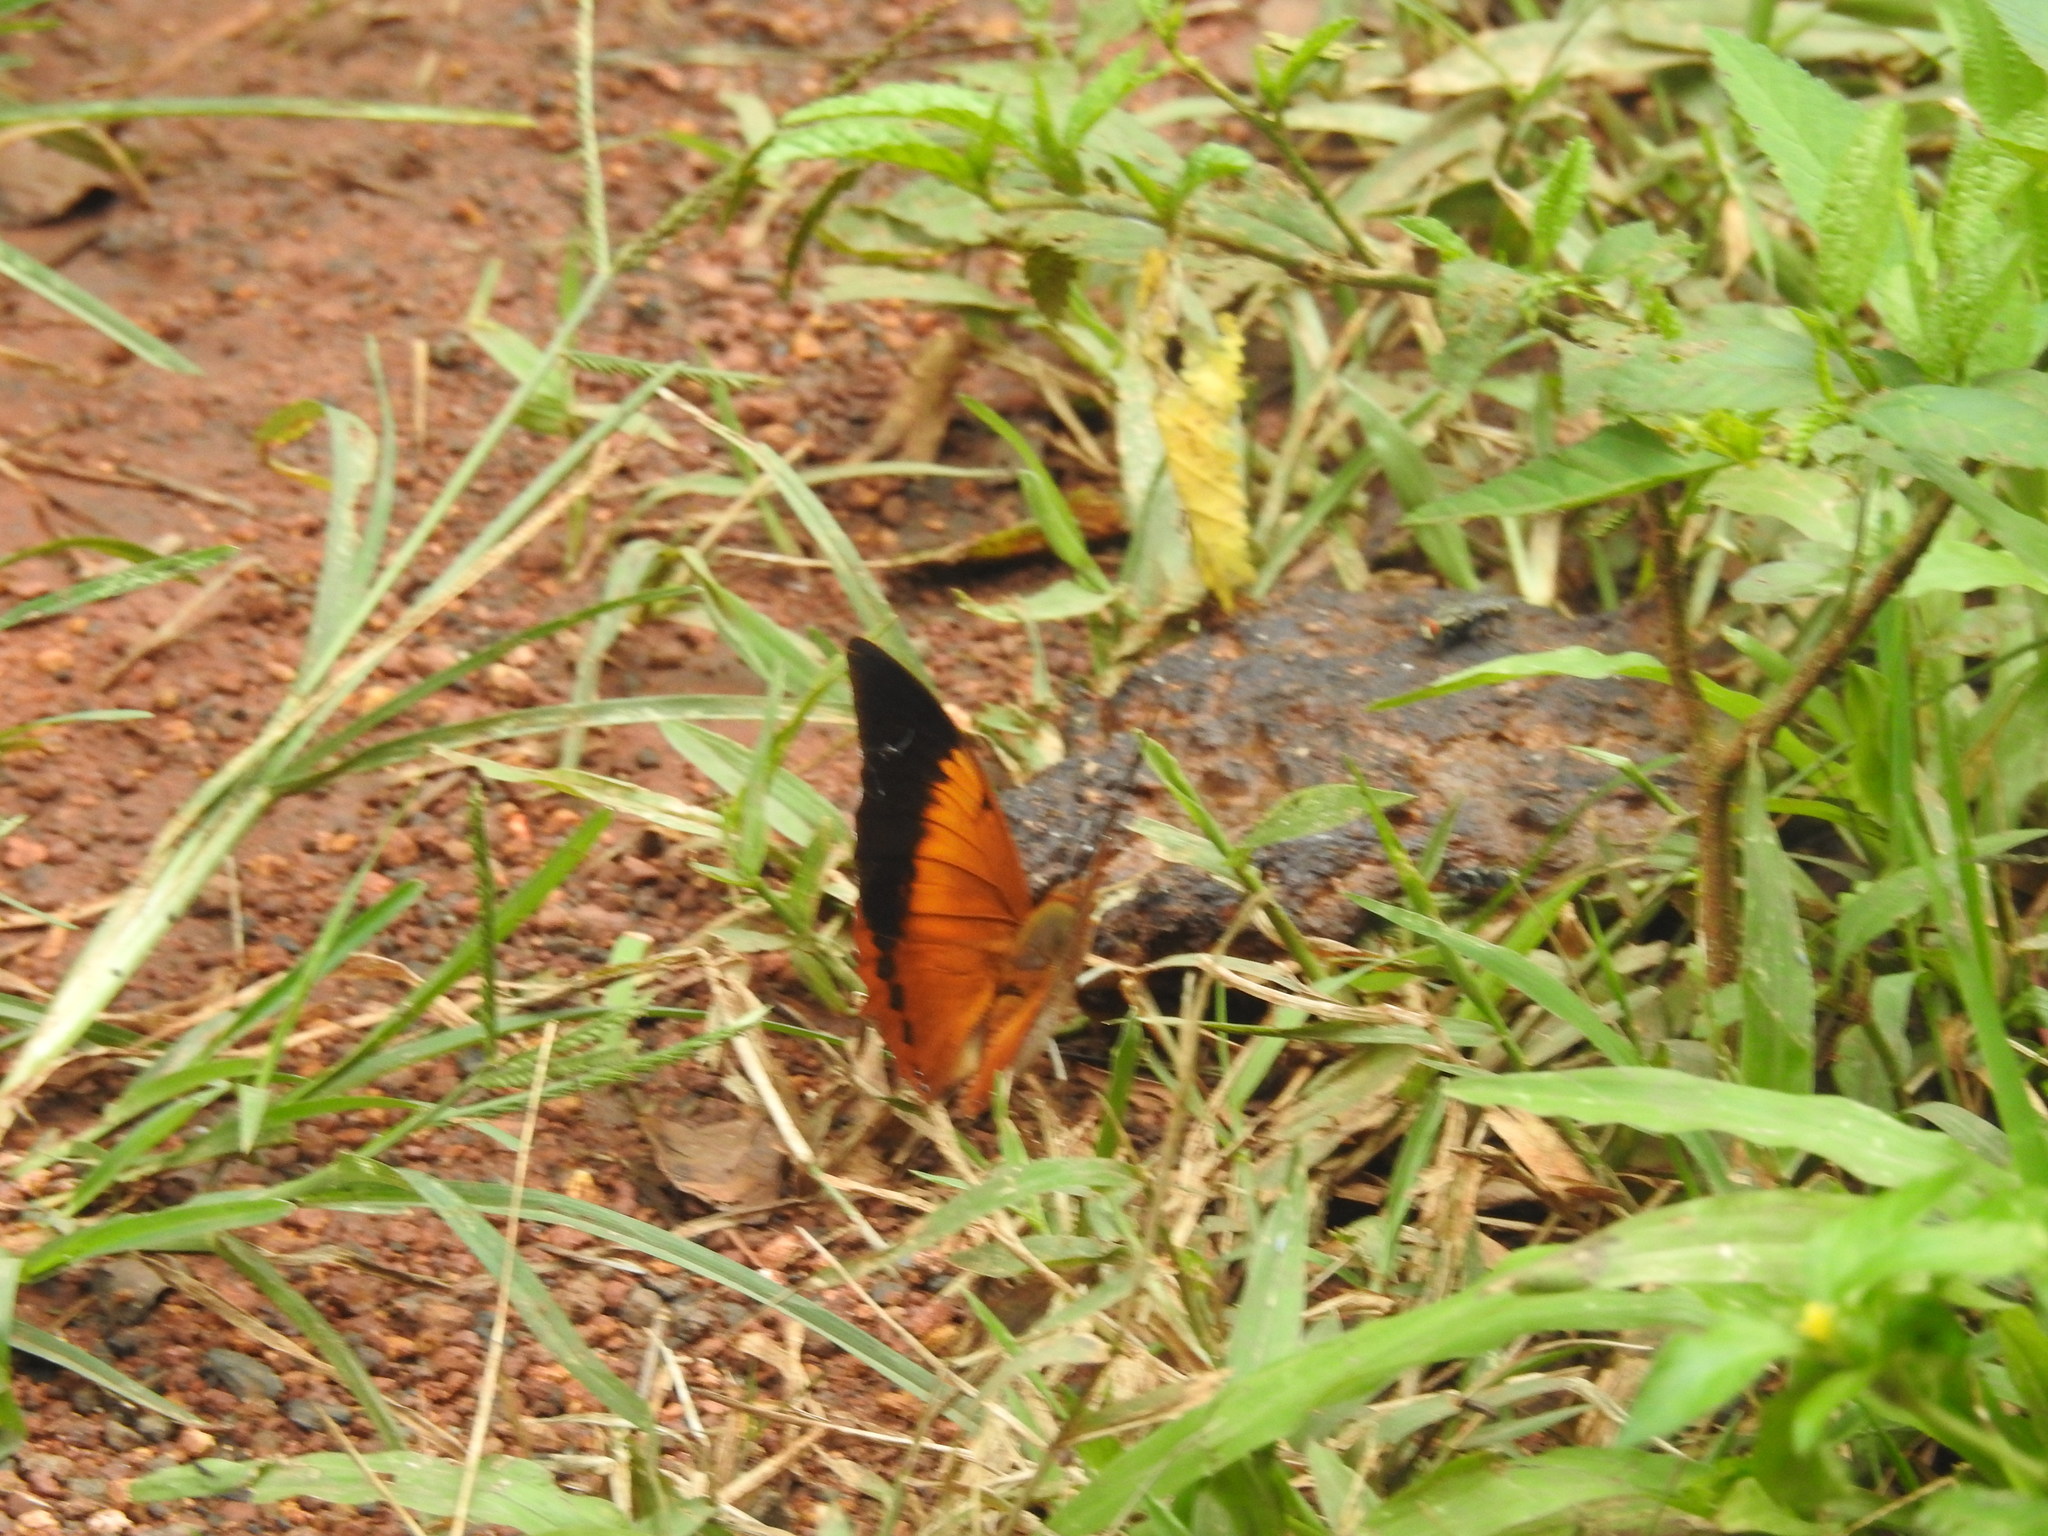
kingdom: Animalia
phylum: Arthropoda
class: Insecta
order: Lepidoptera
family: Nymphalidae
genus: Charaxes
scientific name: Charaxes bernardus
